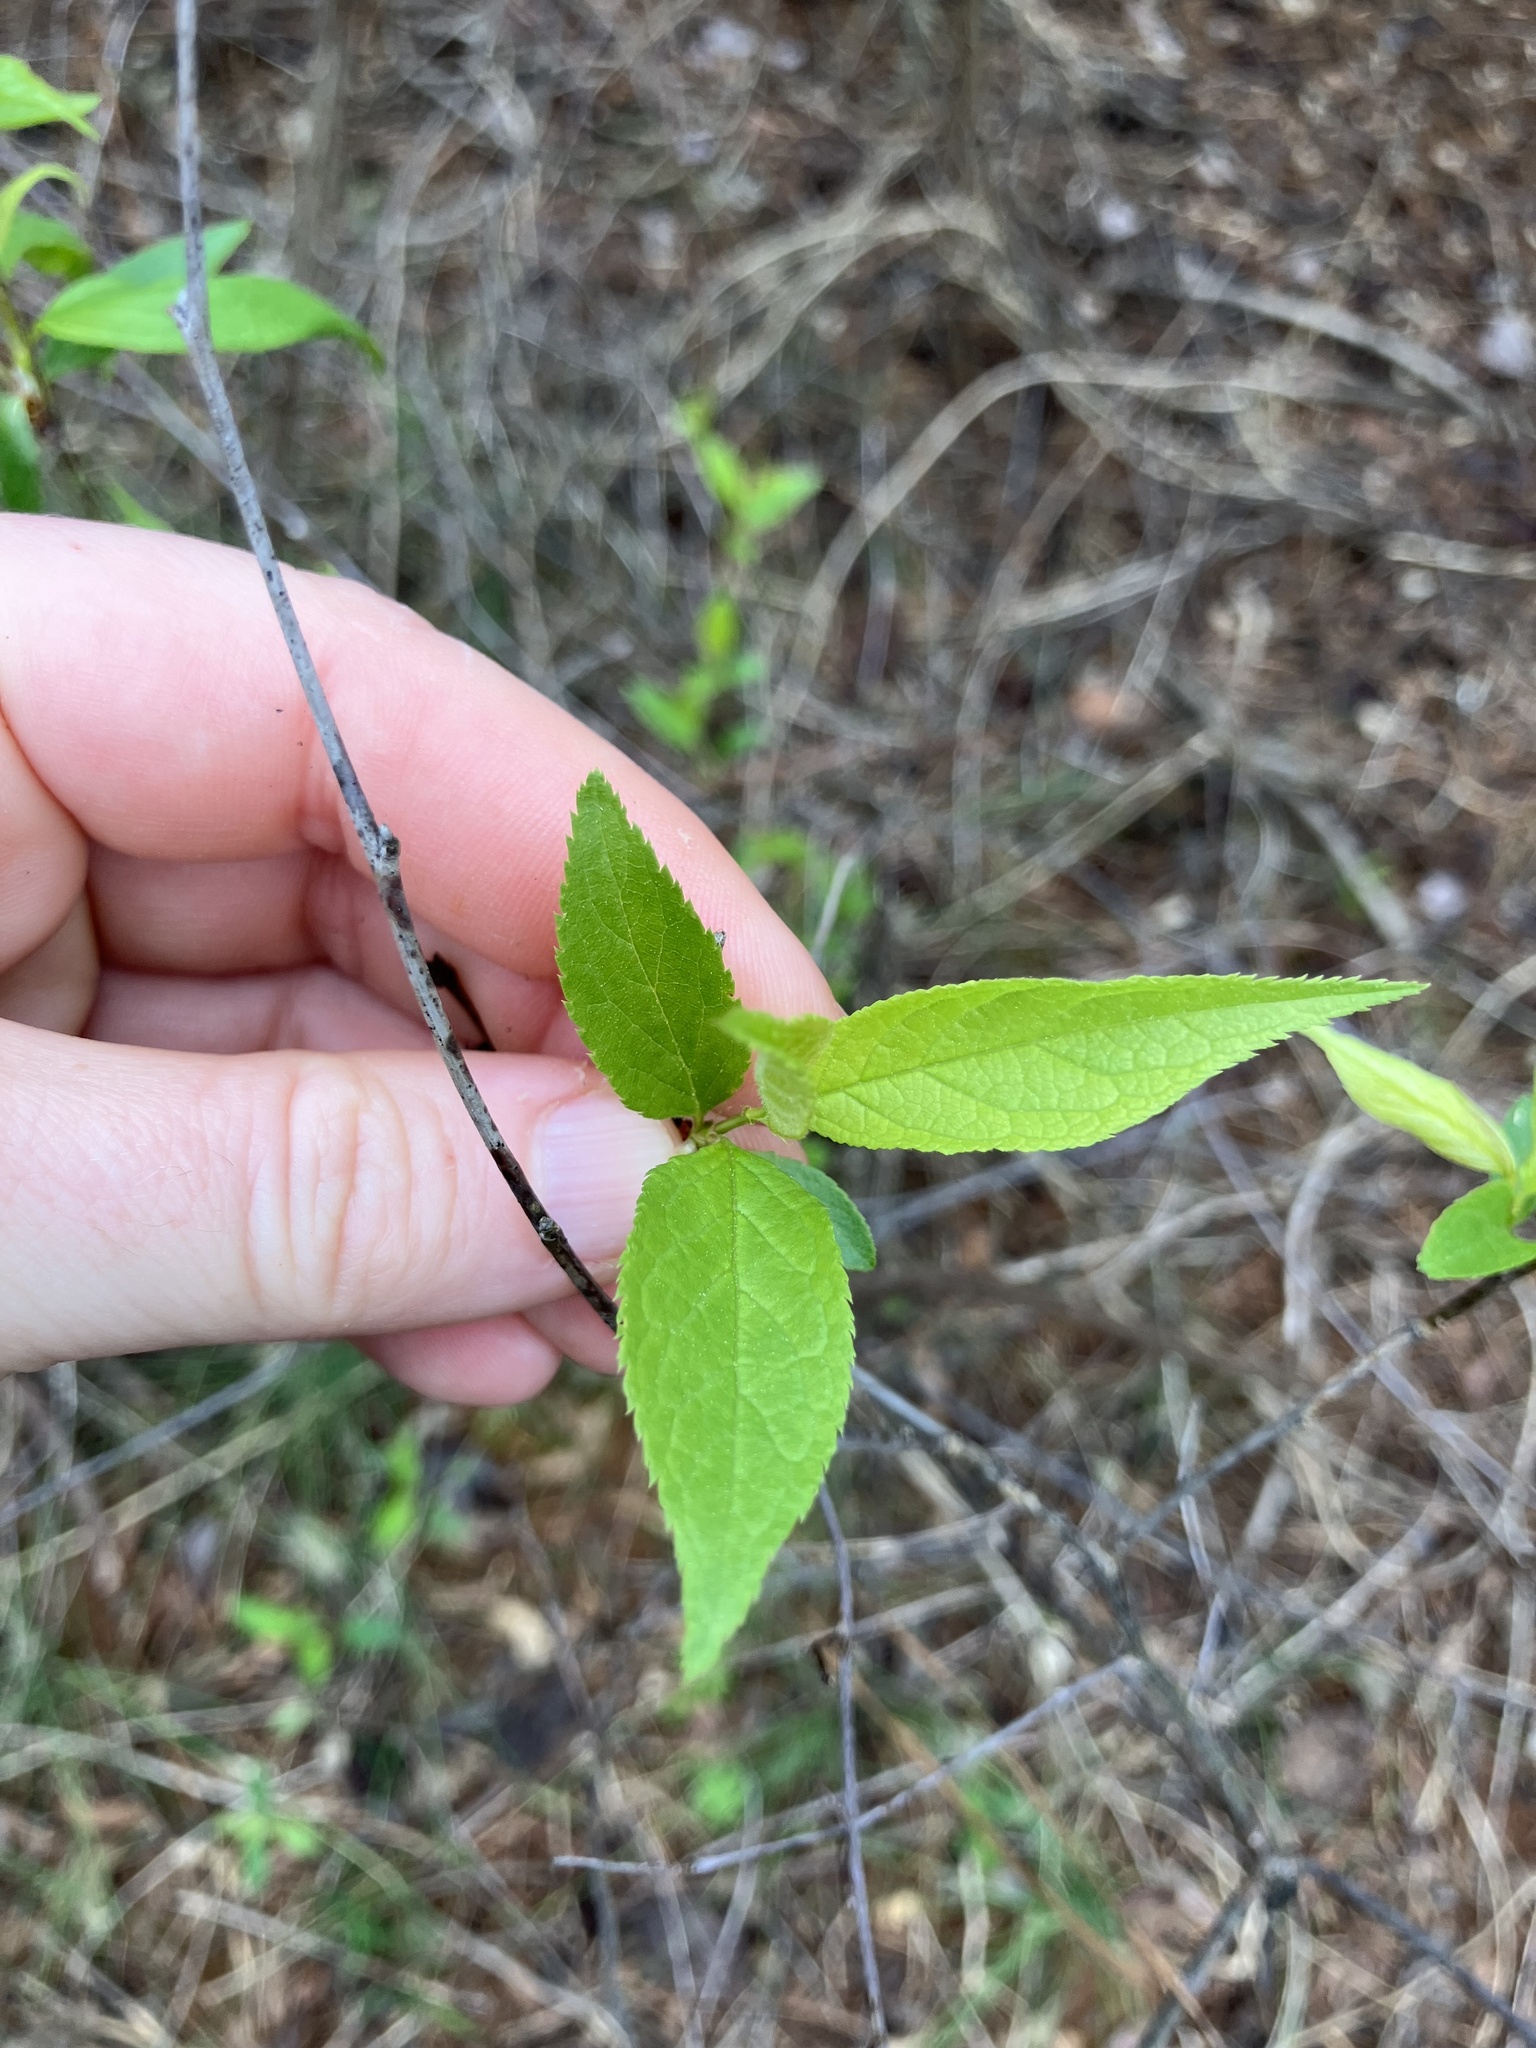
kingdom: Plantae
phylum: Tracheophyta
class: Magnoliopsida
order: Rosales
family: Rosaceae
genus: Prunus
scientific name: Prunus americana
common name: American plum
